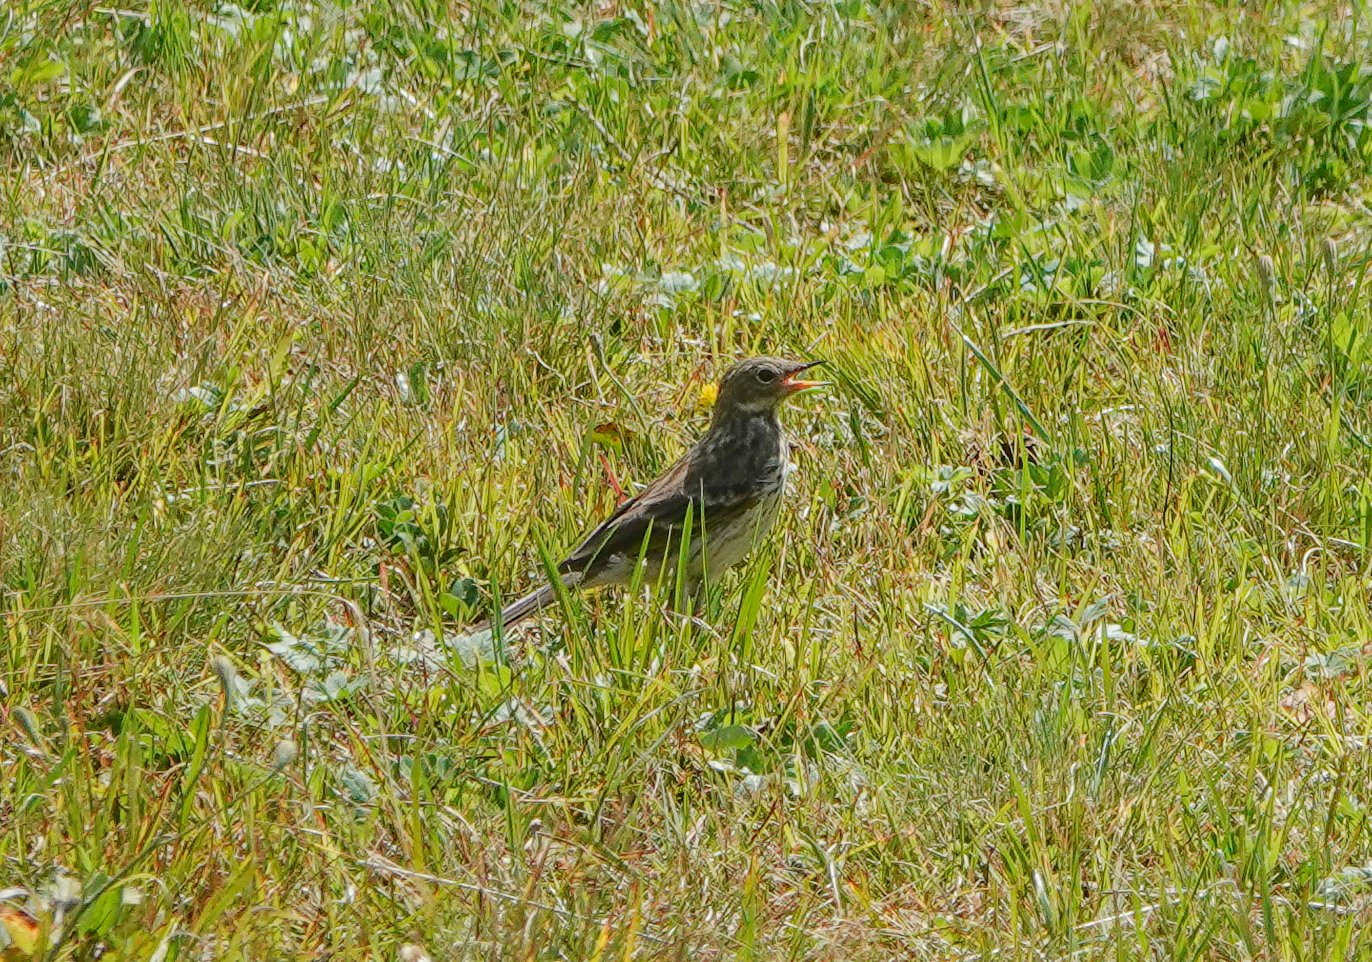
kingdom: Animalia
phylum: Chordata
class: Aves
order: Passeriformes
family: Motacillidae
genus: Anthus
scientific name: Anthus spinoletta
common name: Water pipit
